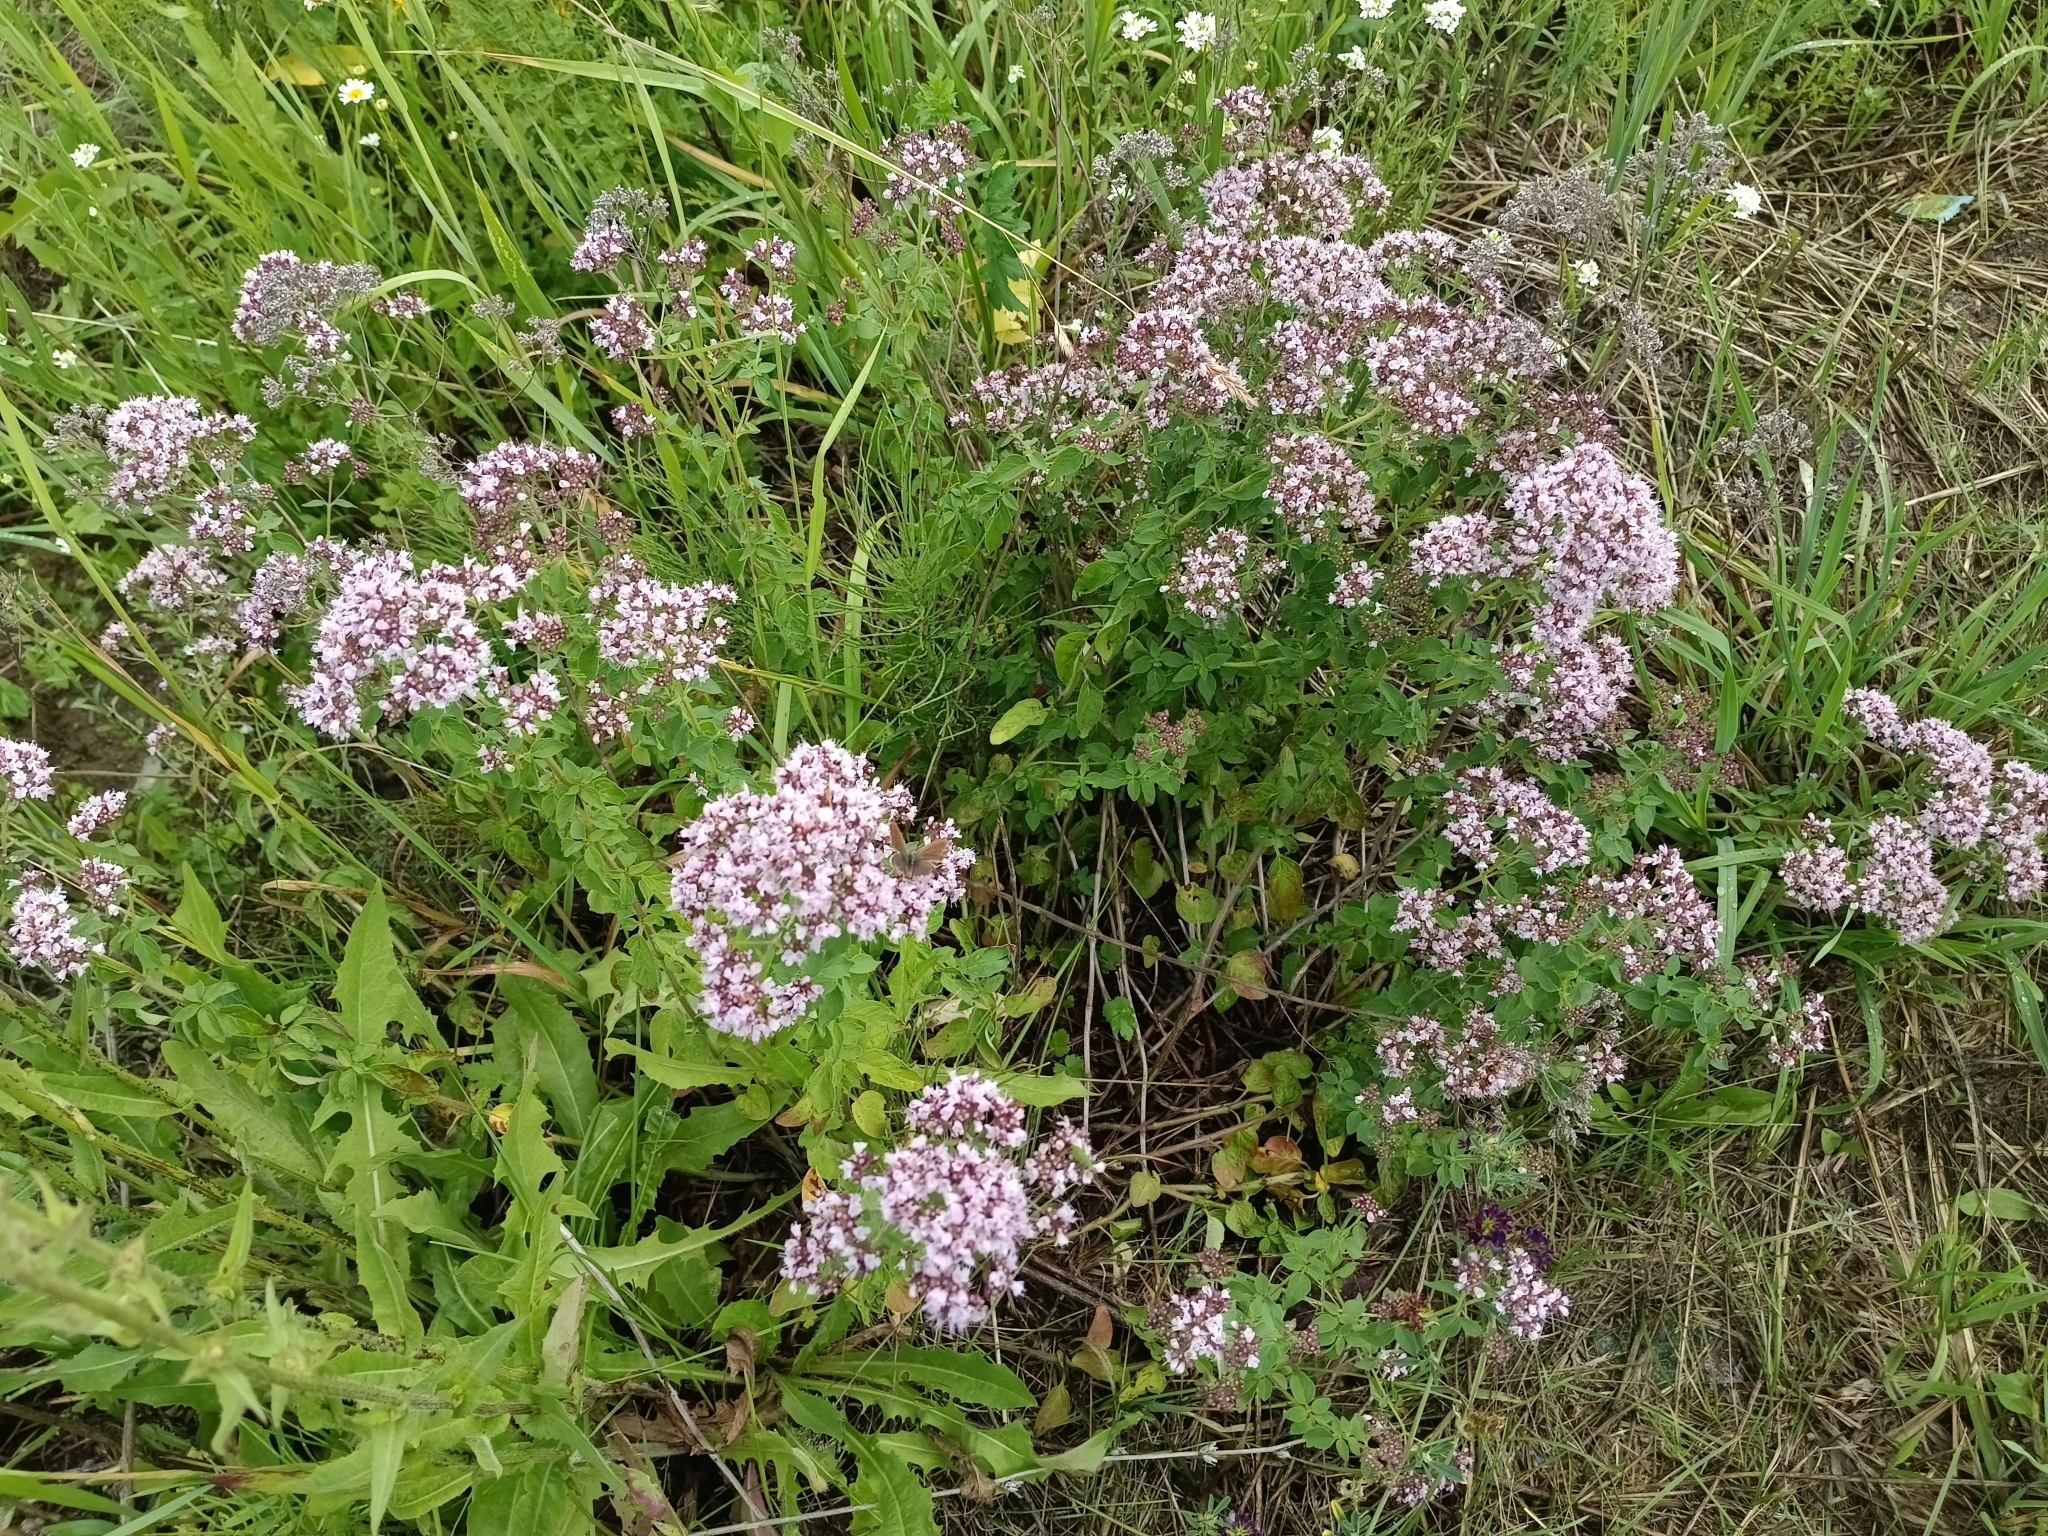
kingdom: Plantae
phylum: Tracheophyta
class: Magnoliopsida
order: Lamiales
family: Lamiaceae
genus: Origanum
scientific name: Origanum vulgare
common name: Wild marjoram
